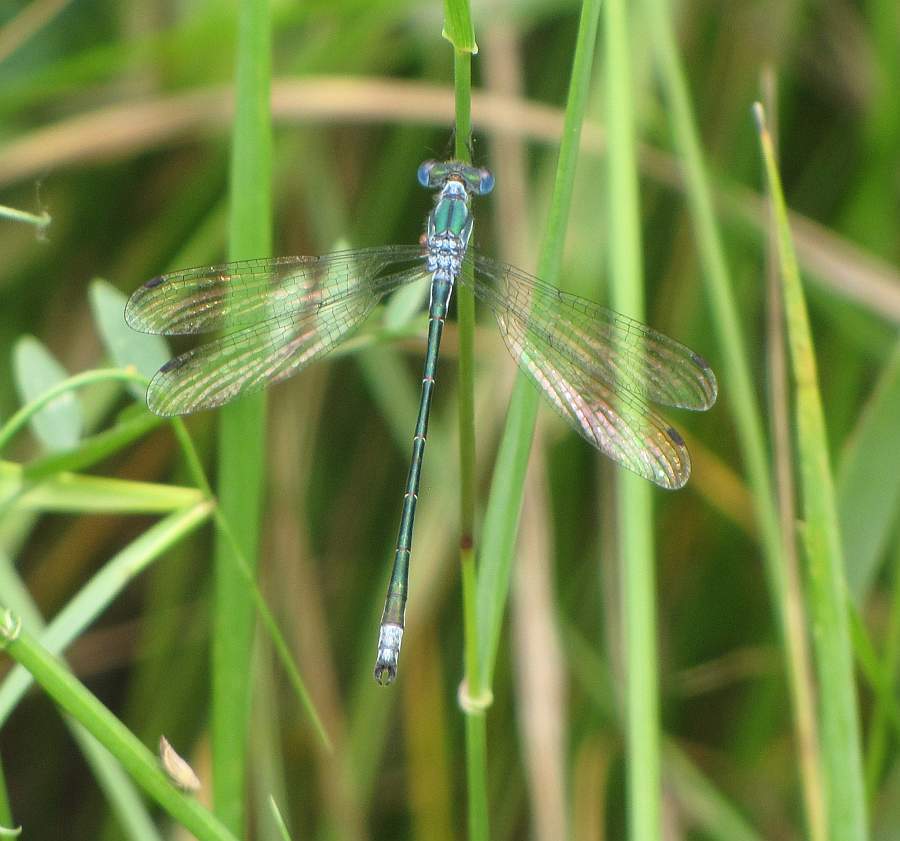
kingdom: Animalia
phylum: Arthropoda
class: Insecta
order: Odonata
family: Lestidae
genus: Lestes
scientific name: Lestes dryas
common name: Scarce emerald damselfly
